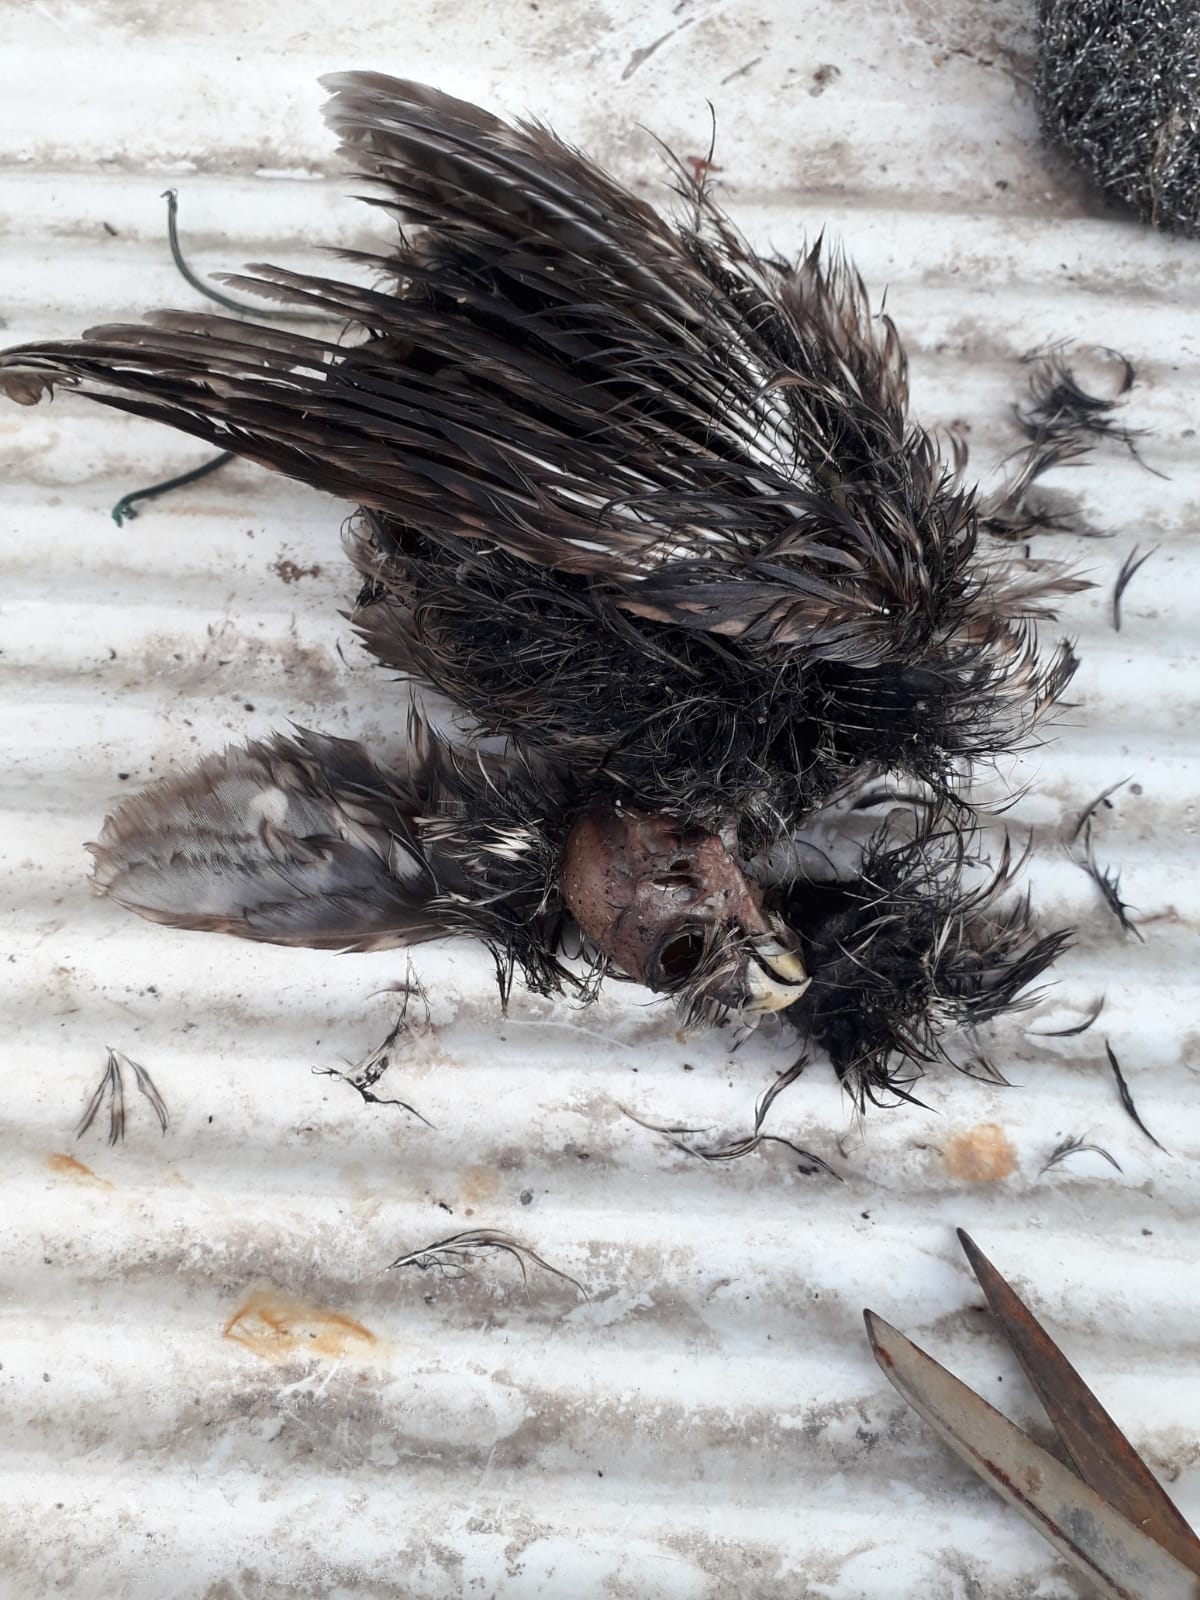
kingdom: Animalia
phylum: Chordata
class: Aves
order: Strigiformes
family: Strigidae
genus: Athene
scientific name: Athene noctua
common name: Little owl
